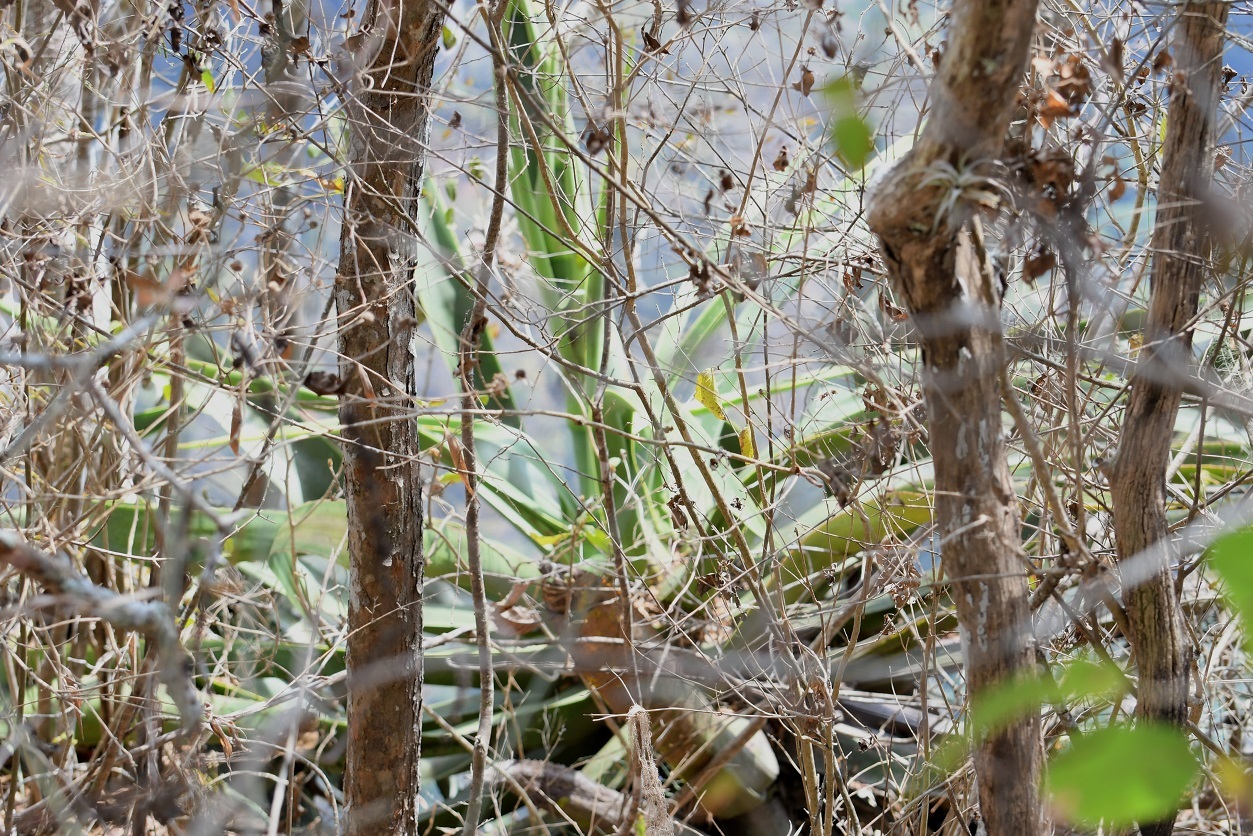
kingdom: Plantae
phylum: Tracheophyta
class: Liliopsida
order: Asparagales
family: Asparagaceae
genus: Agave
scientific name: Agave kewensis
